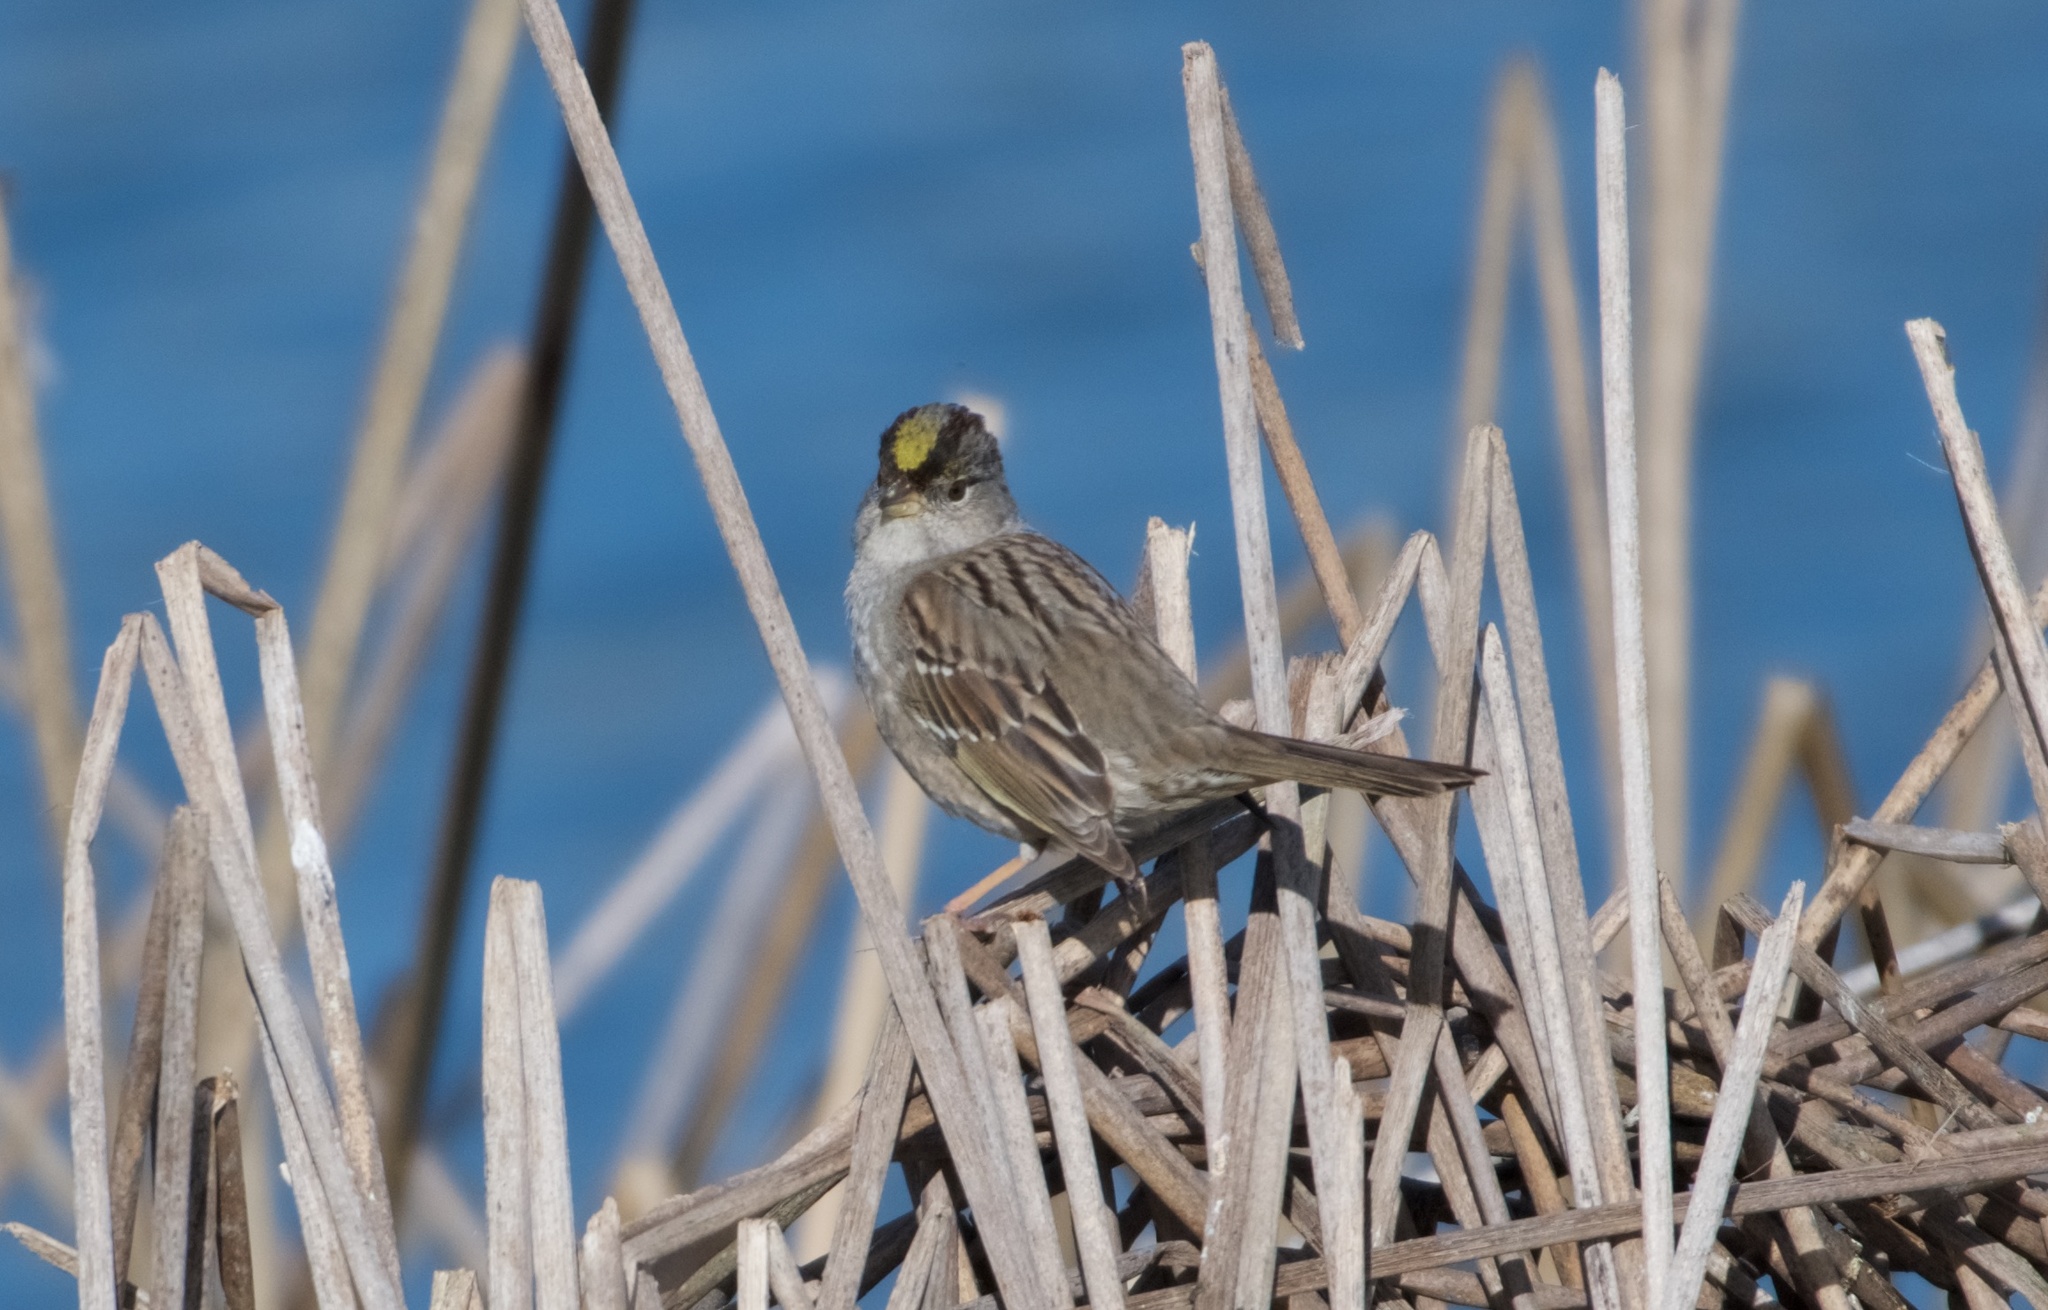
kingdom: Animalia
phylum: Chordata
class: Aves
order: Passeriformes
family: Passerellidae
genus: Zonotrichia
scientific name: Zonotrichia atricapilla
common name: Golden-crowned sparrow
